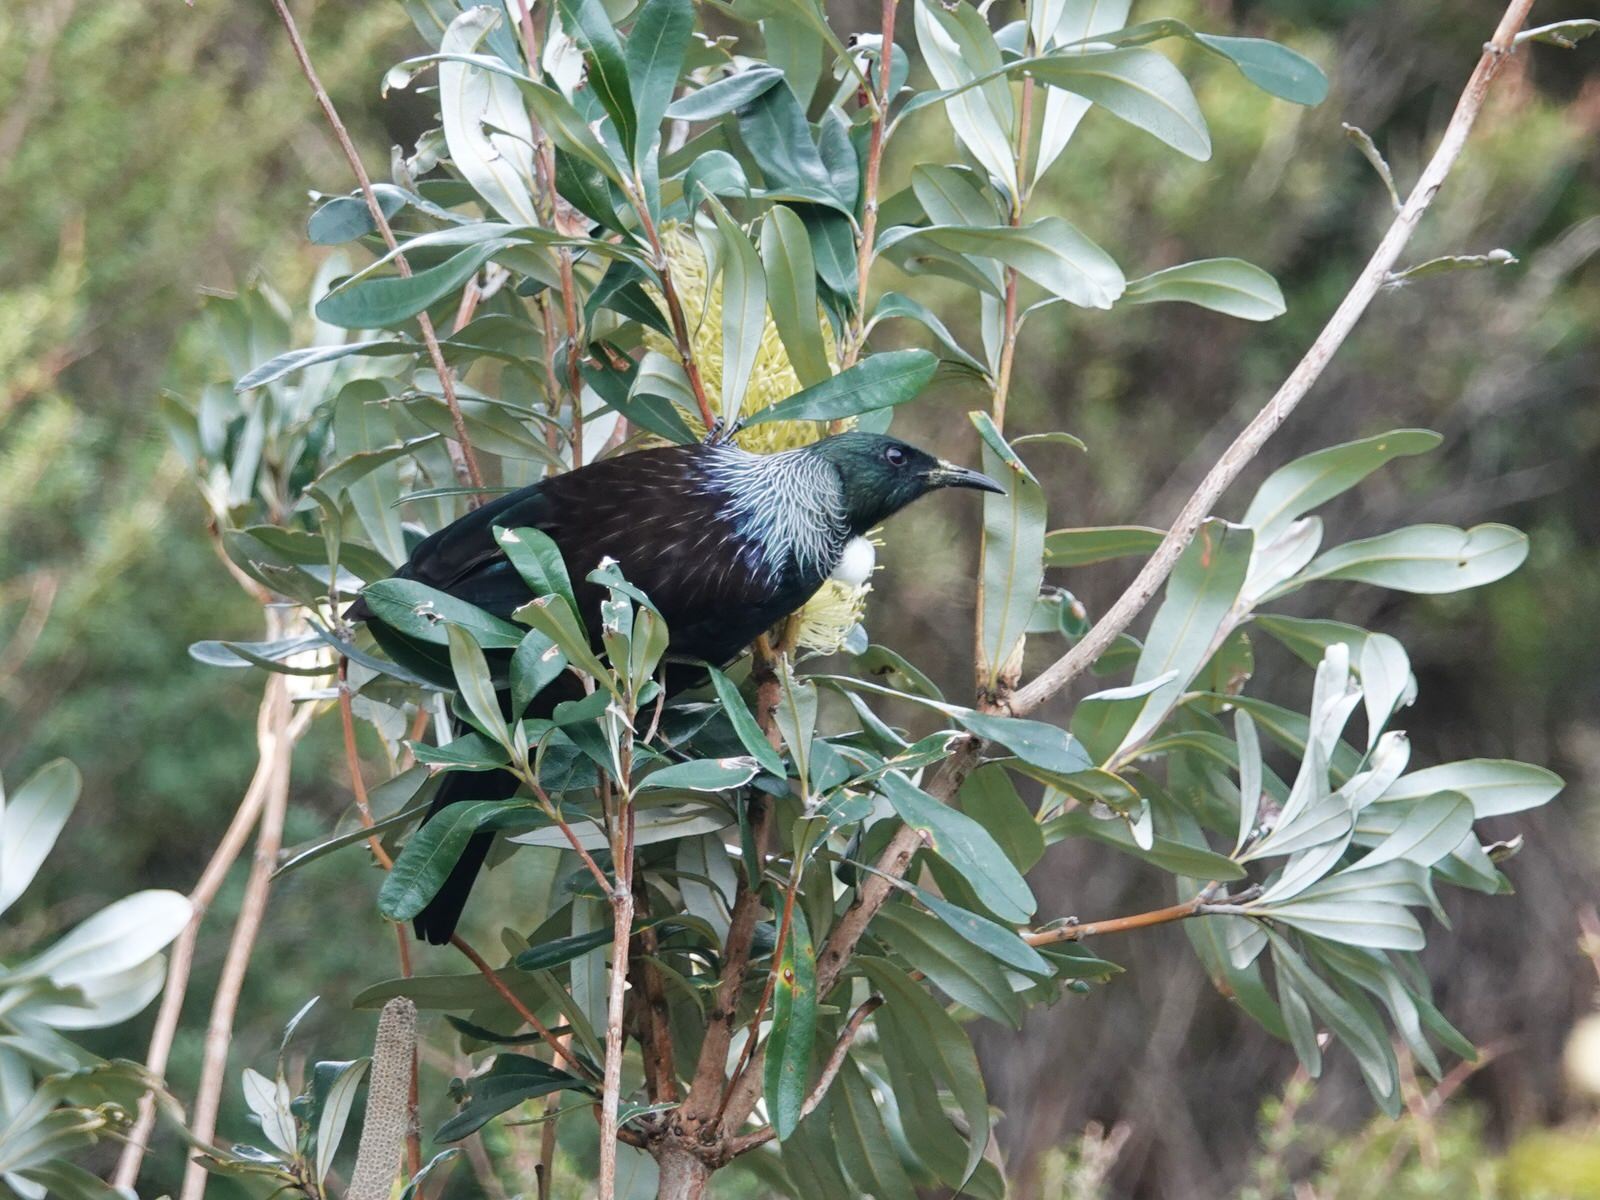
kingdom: Animalia
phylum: Chordata
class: Aves
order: Passeriformes
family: Meliphagidae
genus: Prosthemadera
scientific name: Prosthemadera novaeseelandiae
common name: Tui
